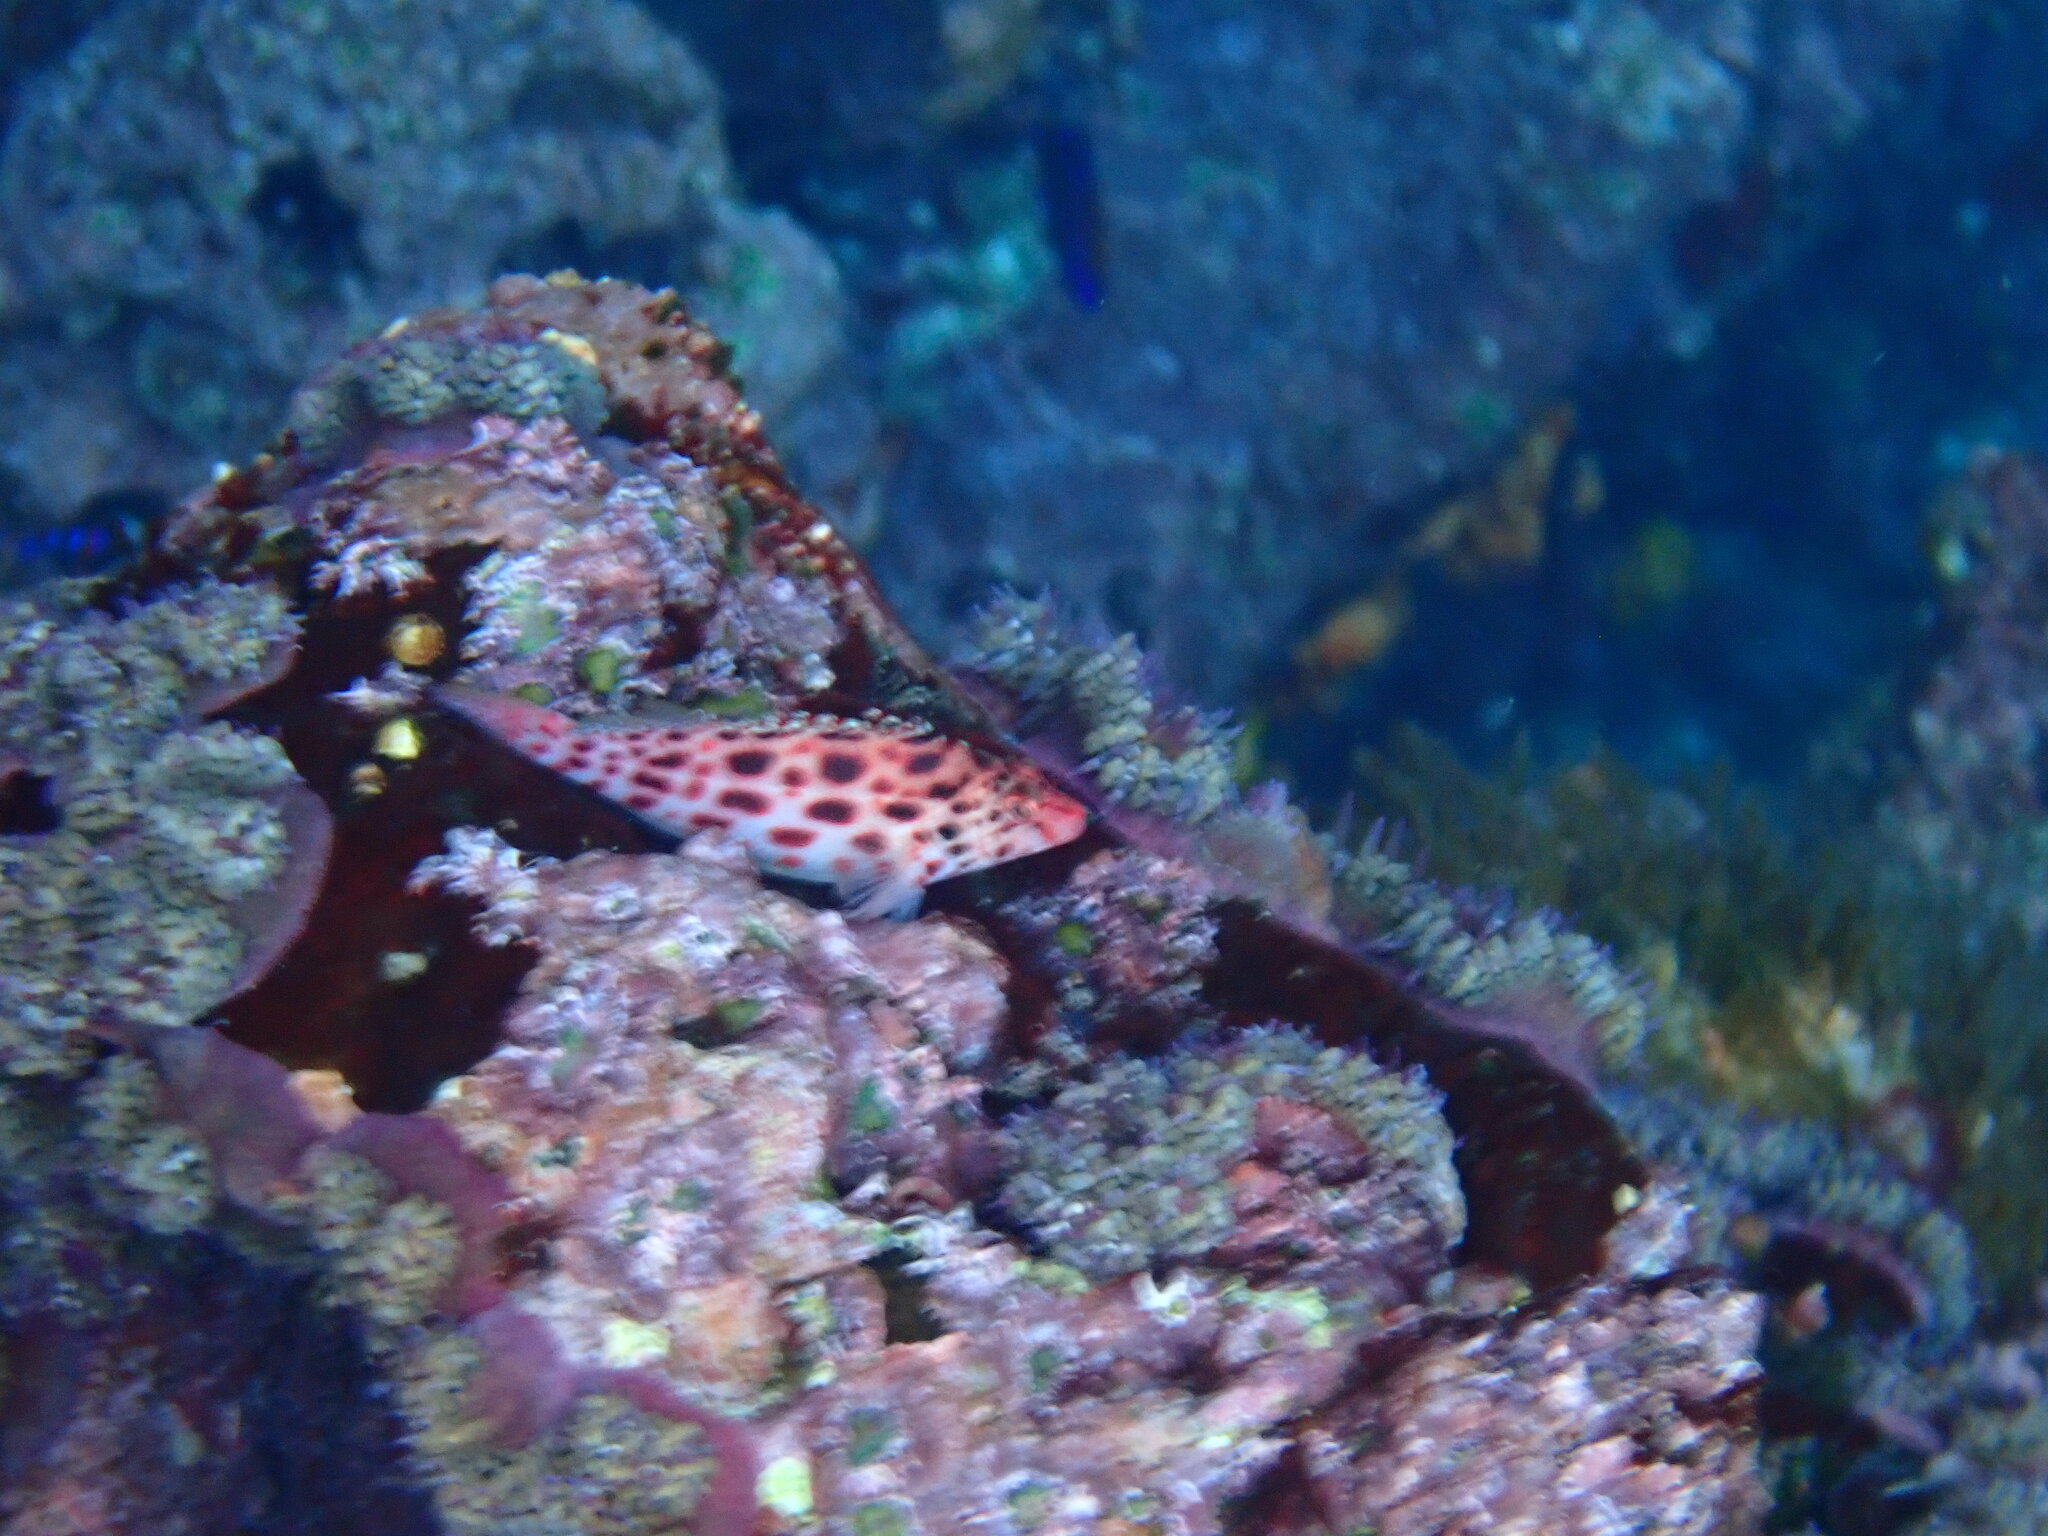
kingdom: Animalia
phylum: Chordata
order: Perciformes
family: Cirrhitidae
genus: Cirrhitichthys
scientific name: Cirrhitichthys oxycephalus
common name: Spotted hawkfish
